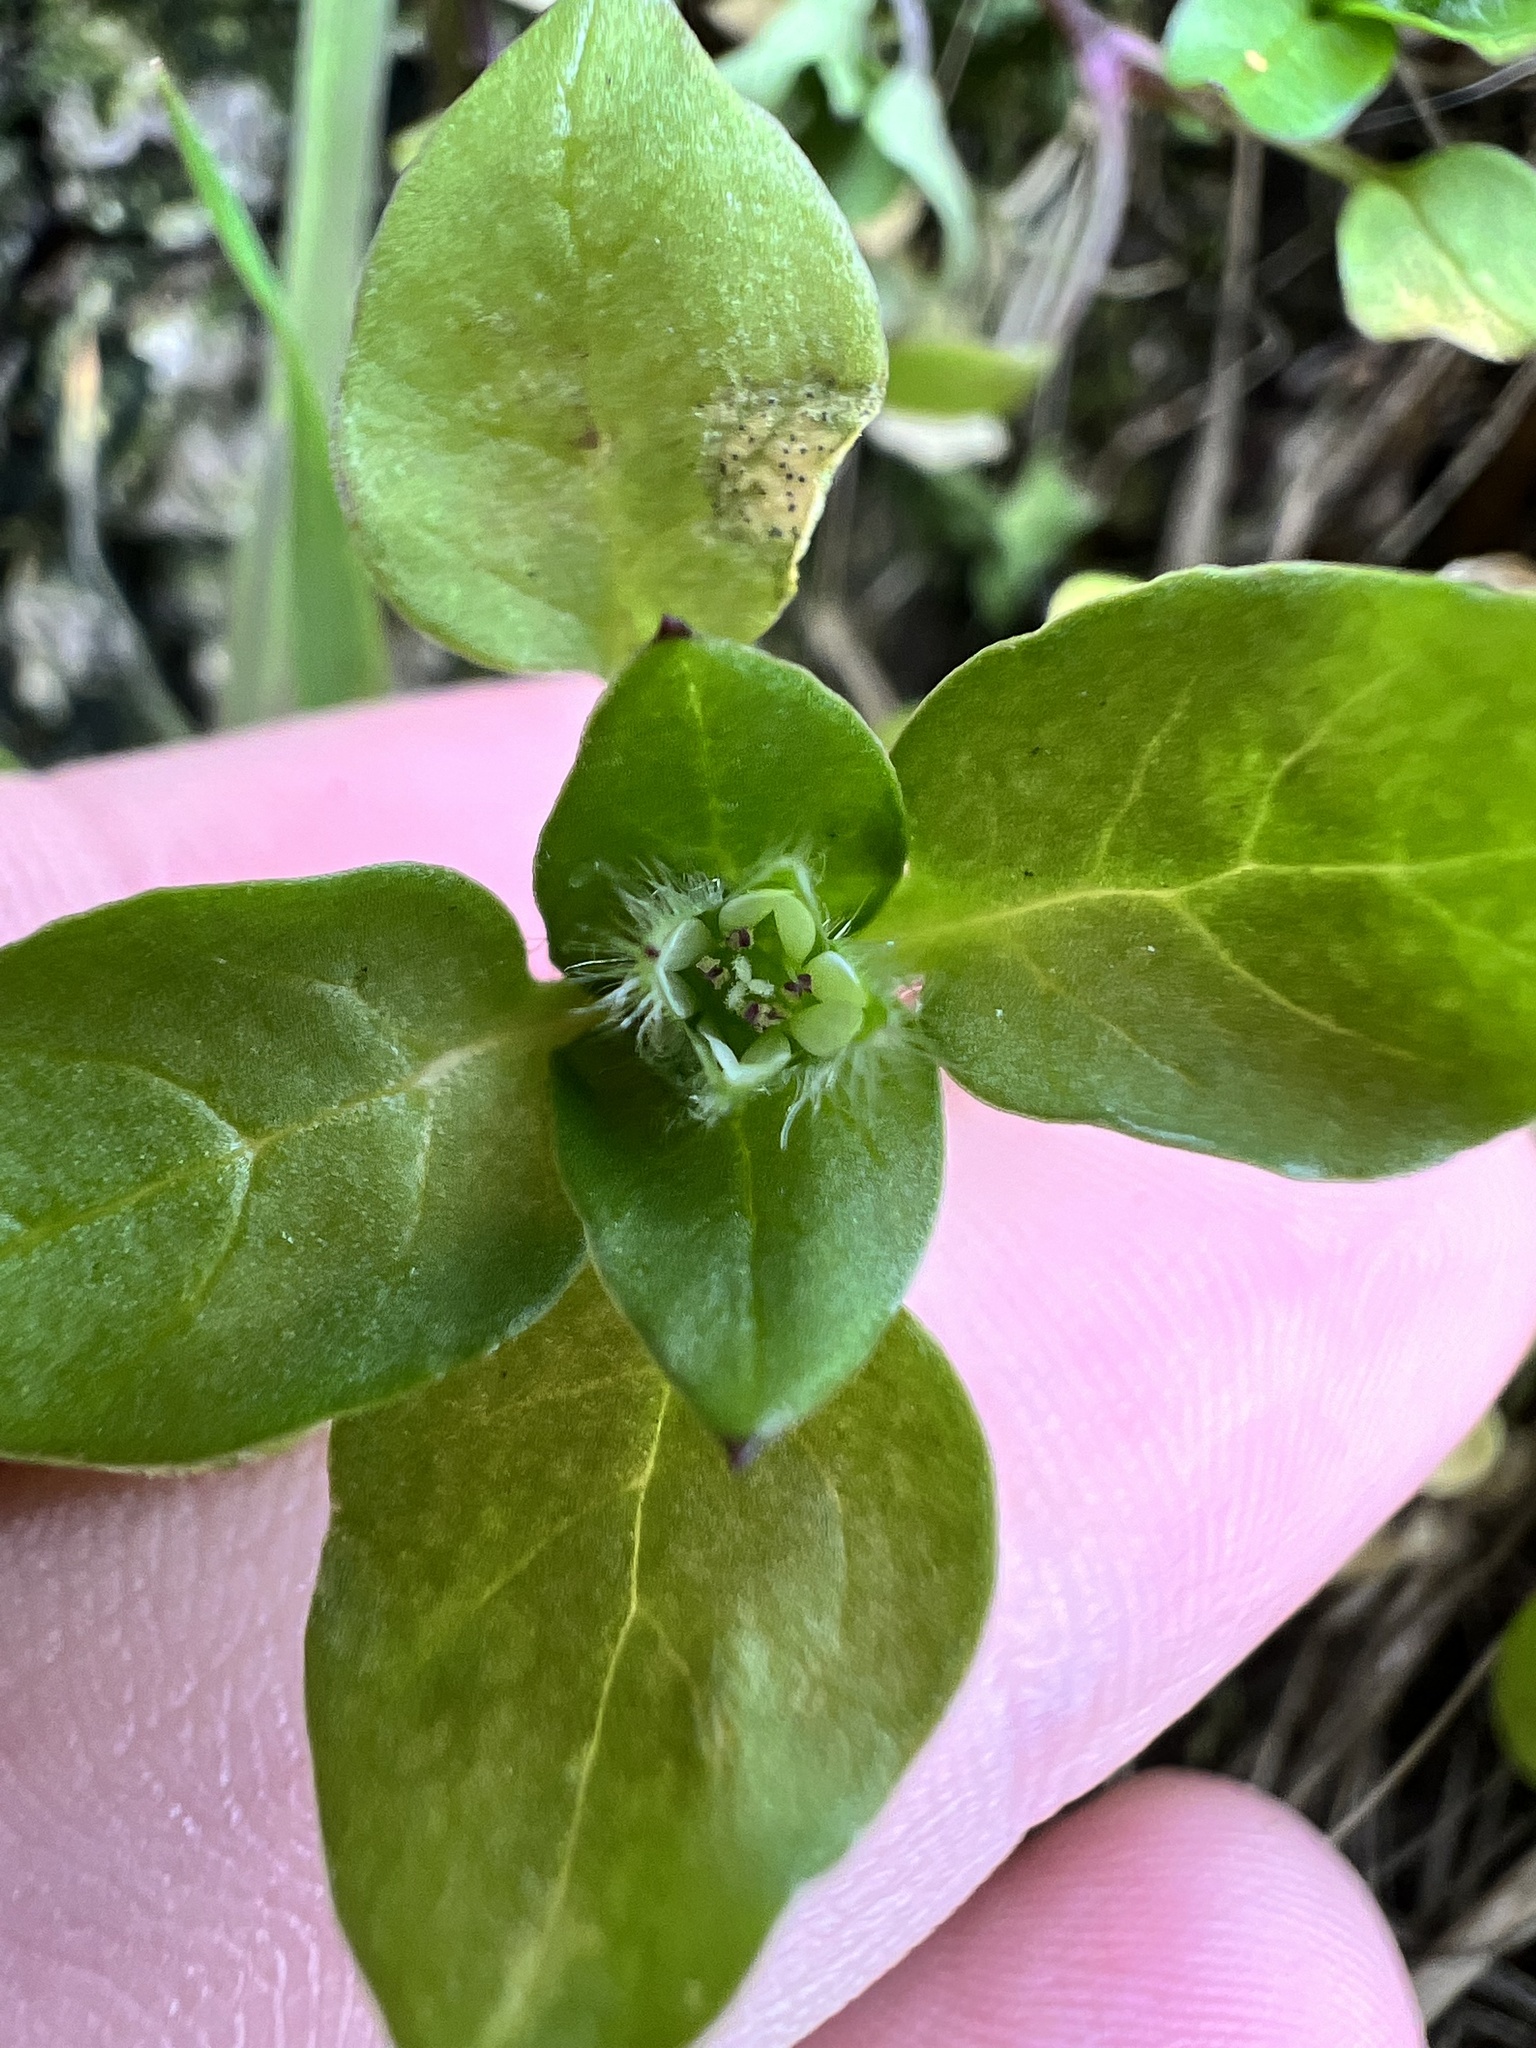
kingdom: Plantae
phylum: Tracheophyta
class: Magnoliopsida
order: Caryophyllales
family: Caryophyllaceae
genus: Stellaria
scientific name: Stellaria media
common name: Common chickweed
